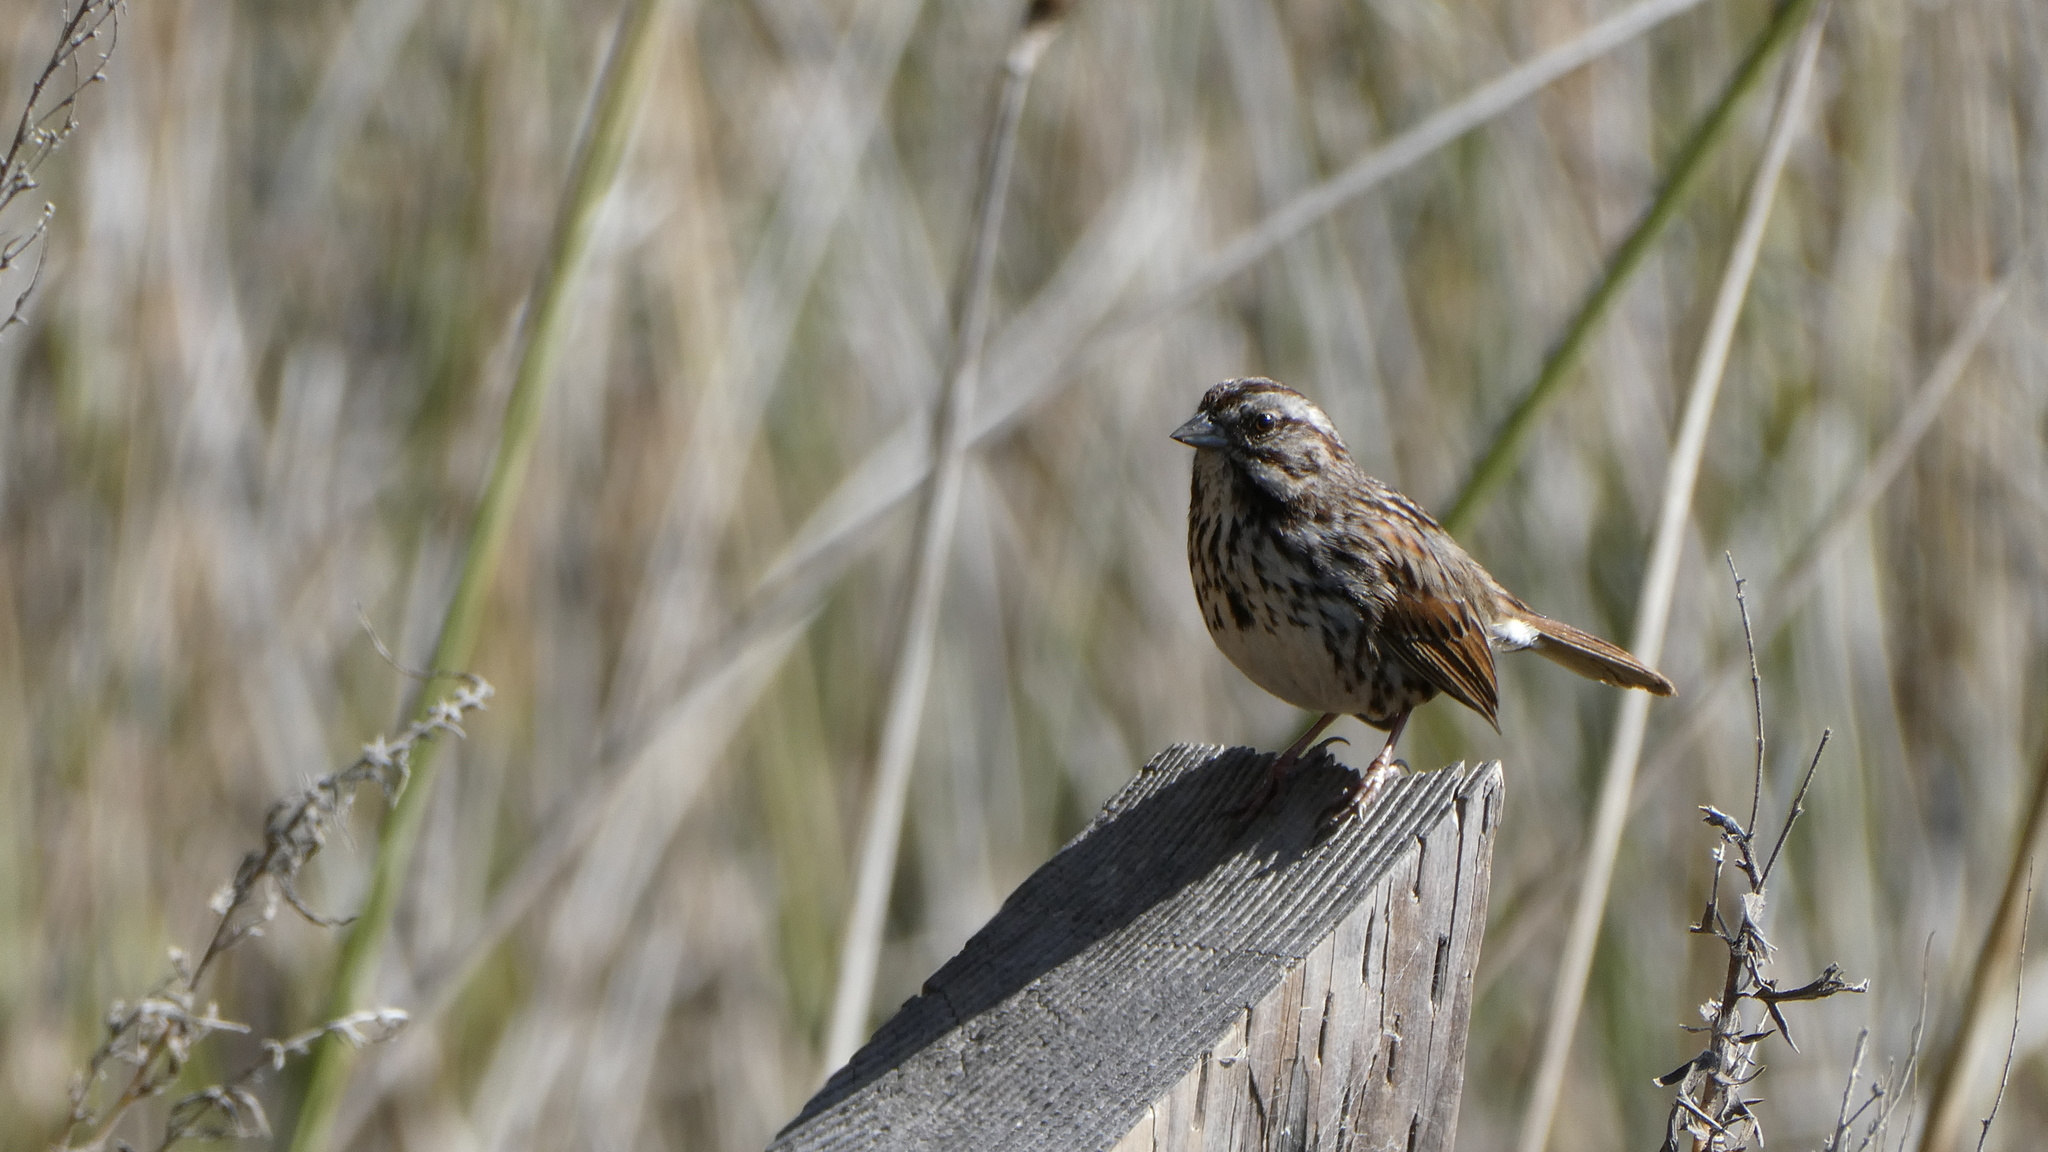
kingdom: Animalia
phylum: Chordata
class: Aves
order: Passeriformes
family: Passerellidae
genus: Melospiza
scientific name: Melospiza melodia
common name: Song sparrow
